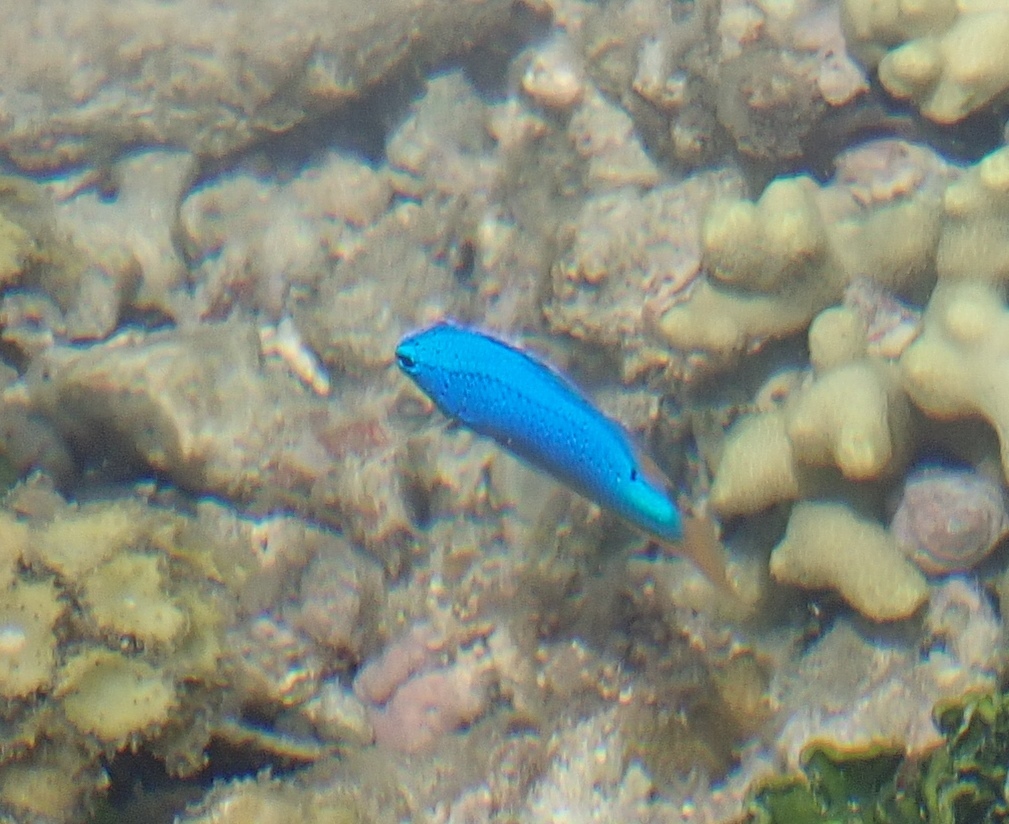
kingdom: Animalia
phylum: Chordata
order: Perciformes
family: Pomacentridae
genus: Chrysiptera
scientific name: Chrysiptera taupou
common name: Fiji damsel
